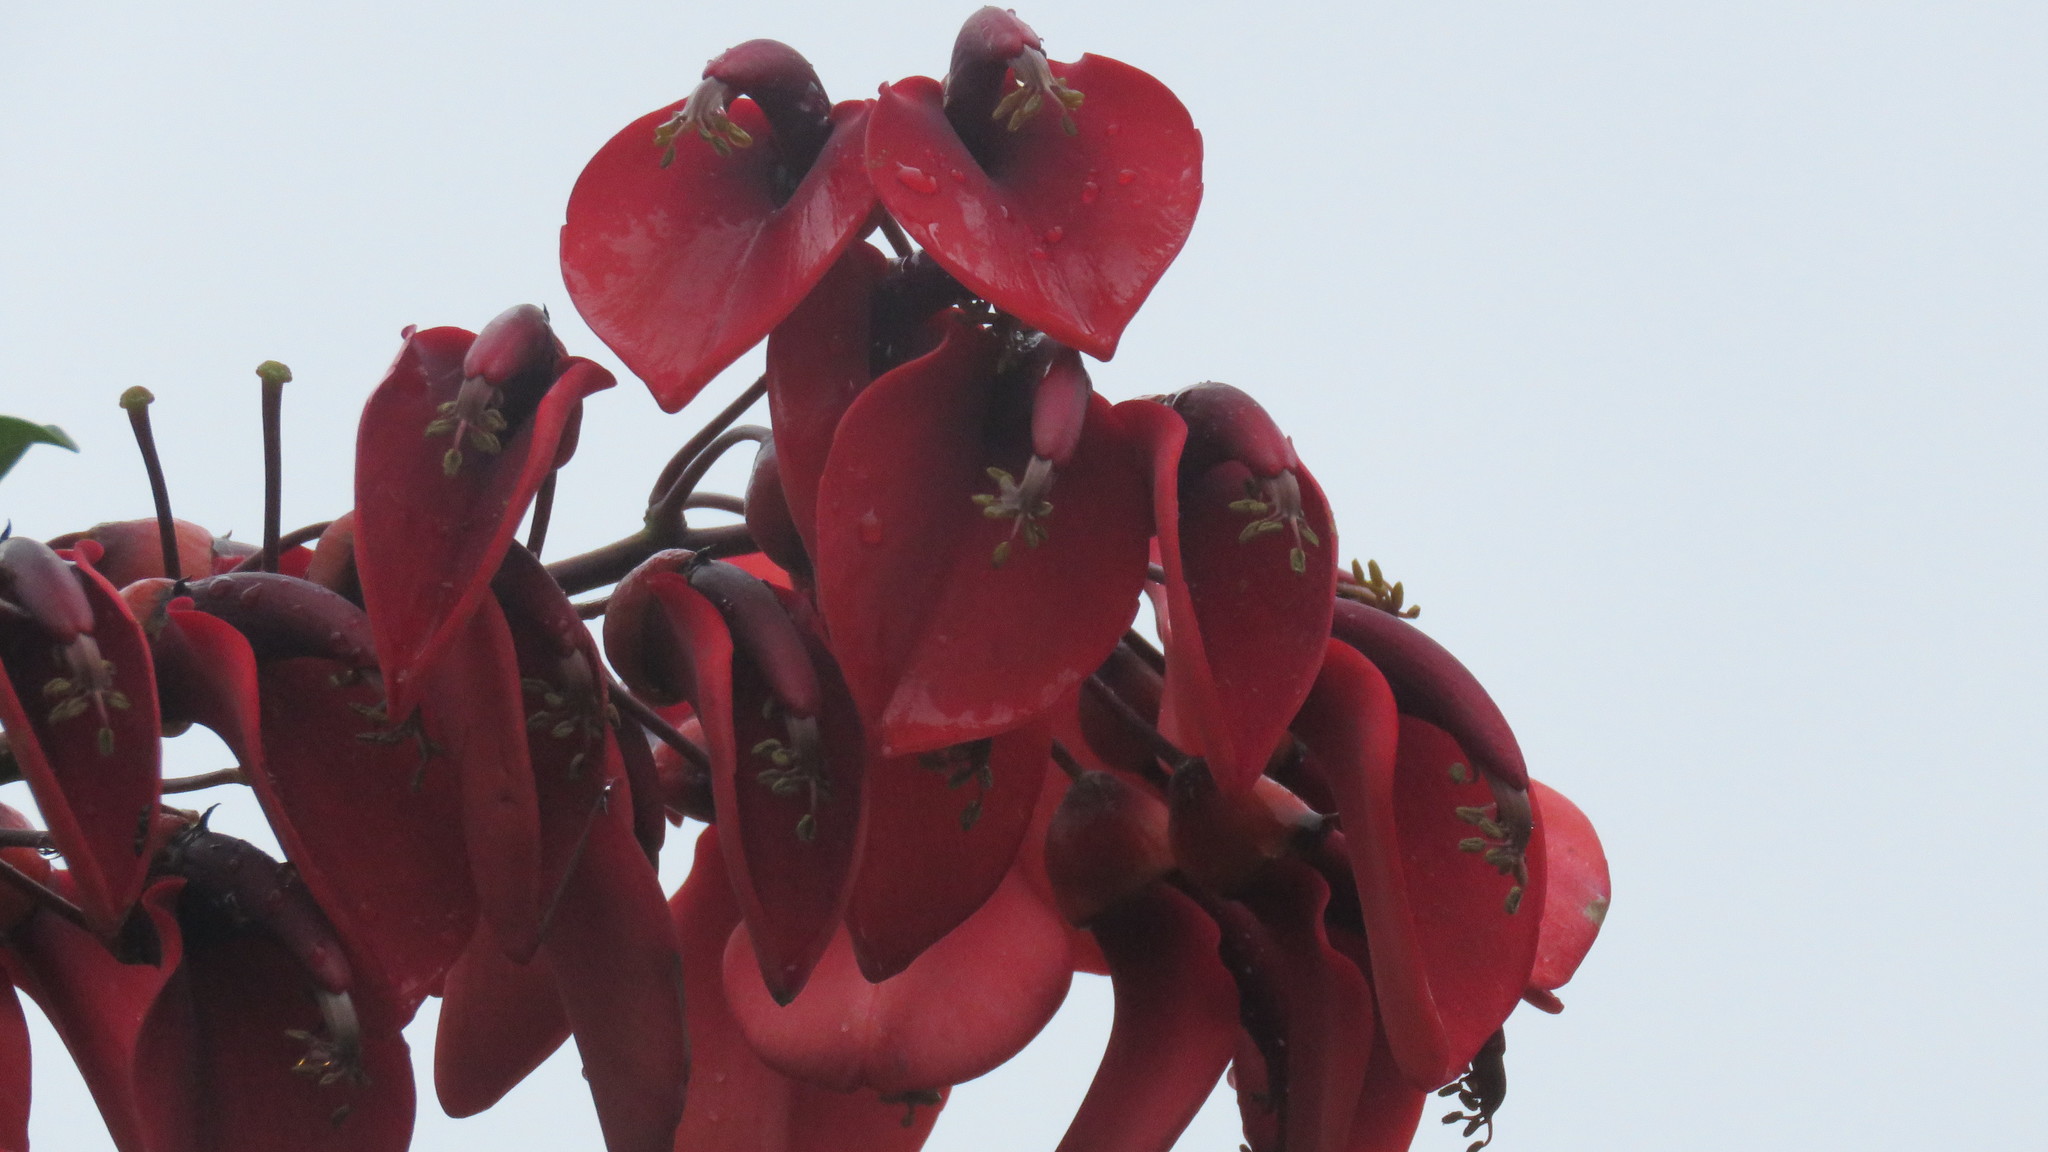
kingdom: Plantae
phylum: Tracheophyta
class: Magnoliopsida
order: Fabales
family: Fabaceae
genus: Erythrina
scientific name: Erythrina crista-galli
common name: Cockspur coral tree
